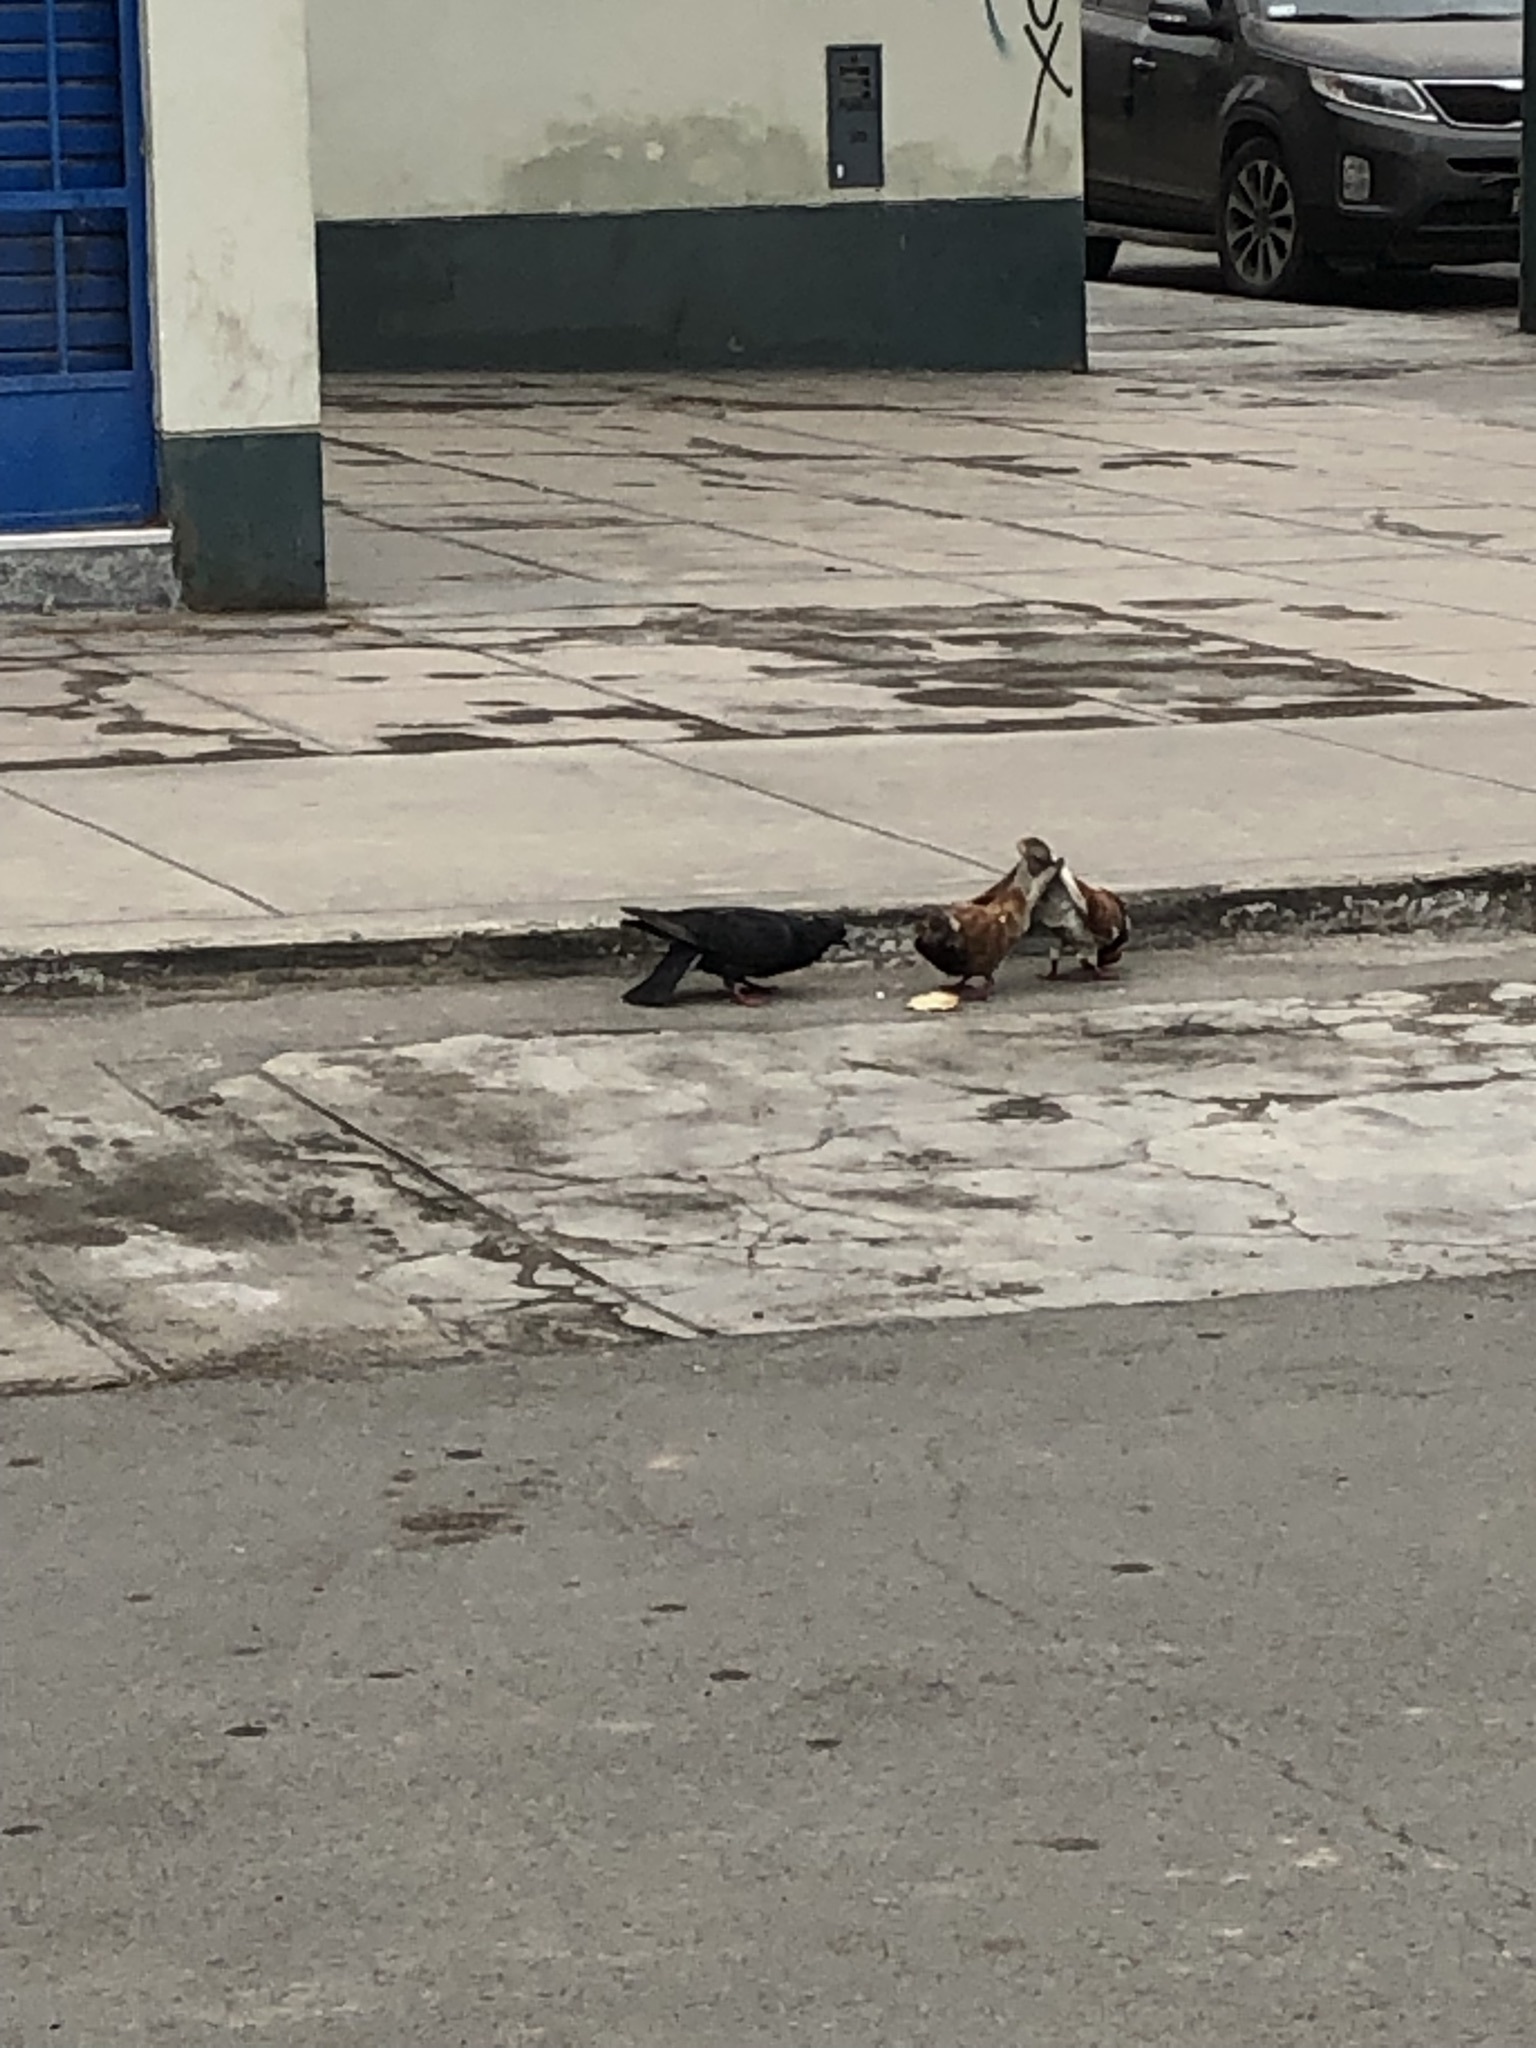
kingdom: Animalia
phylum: Chordata
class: Aves
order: Columbiformes
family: Columbidae
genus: Columba
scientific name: Columba livia
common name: Rock pigeon
